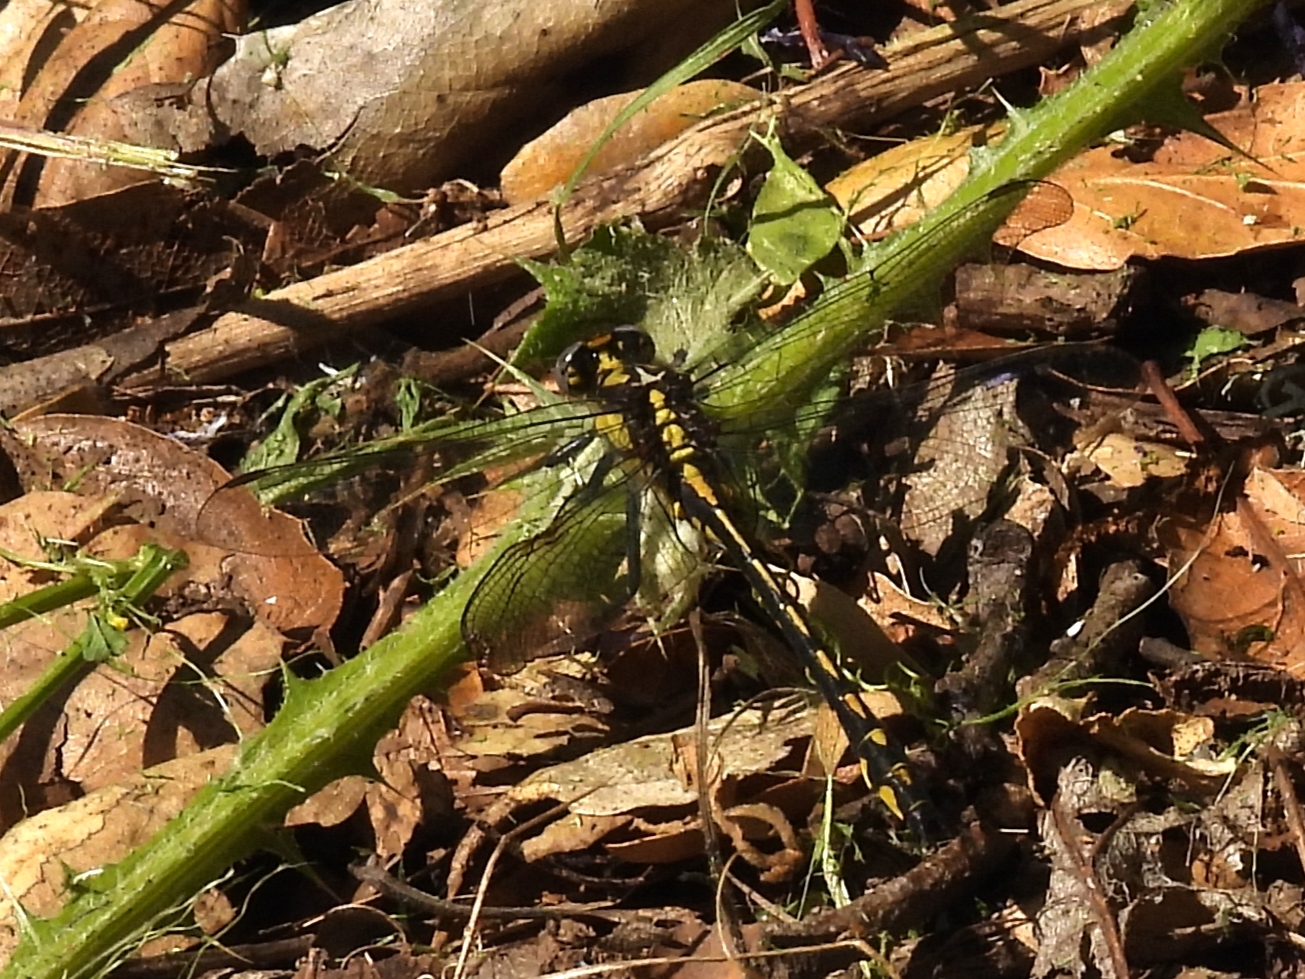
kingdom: Animalia
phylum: Arthropoda
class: Insecta
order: Odonata
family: Gomphidae
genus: Phanogomphus
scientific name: Phanogomphus kurilis
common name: Pacific clubtail
